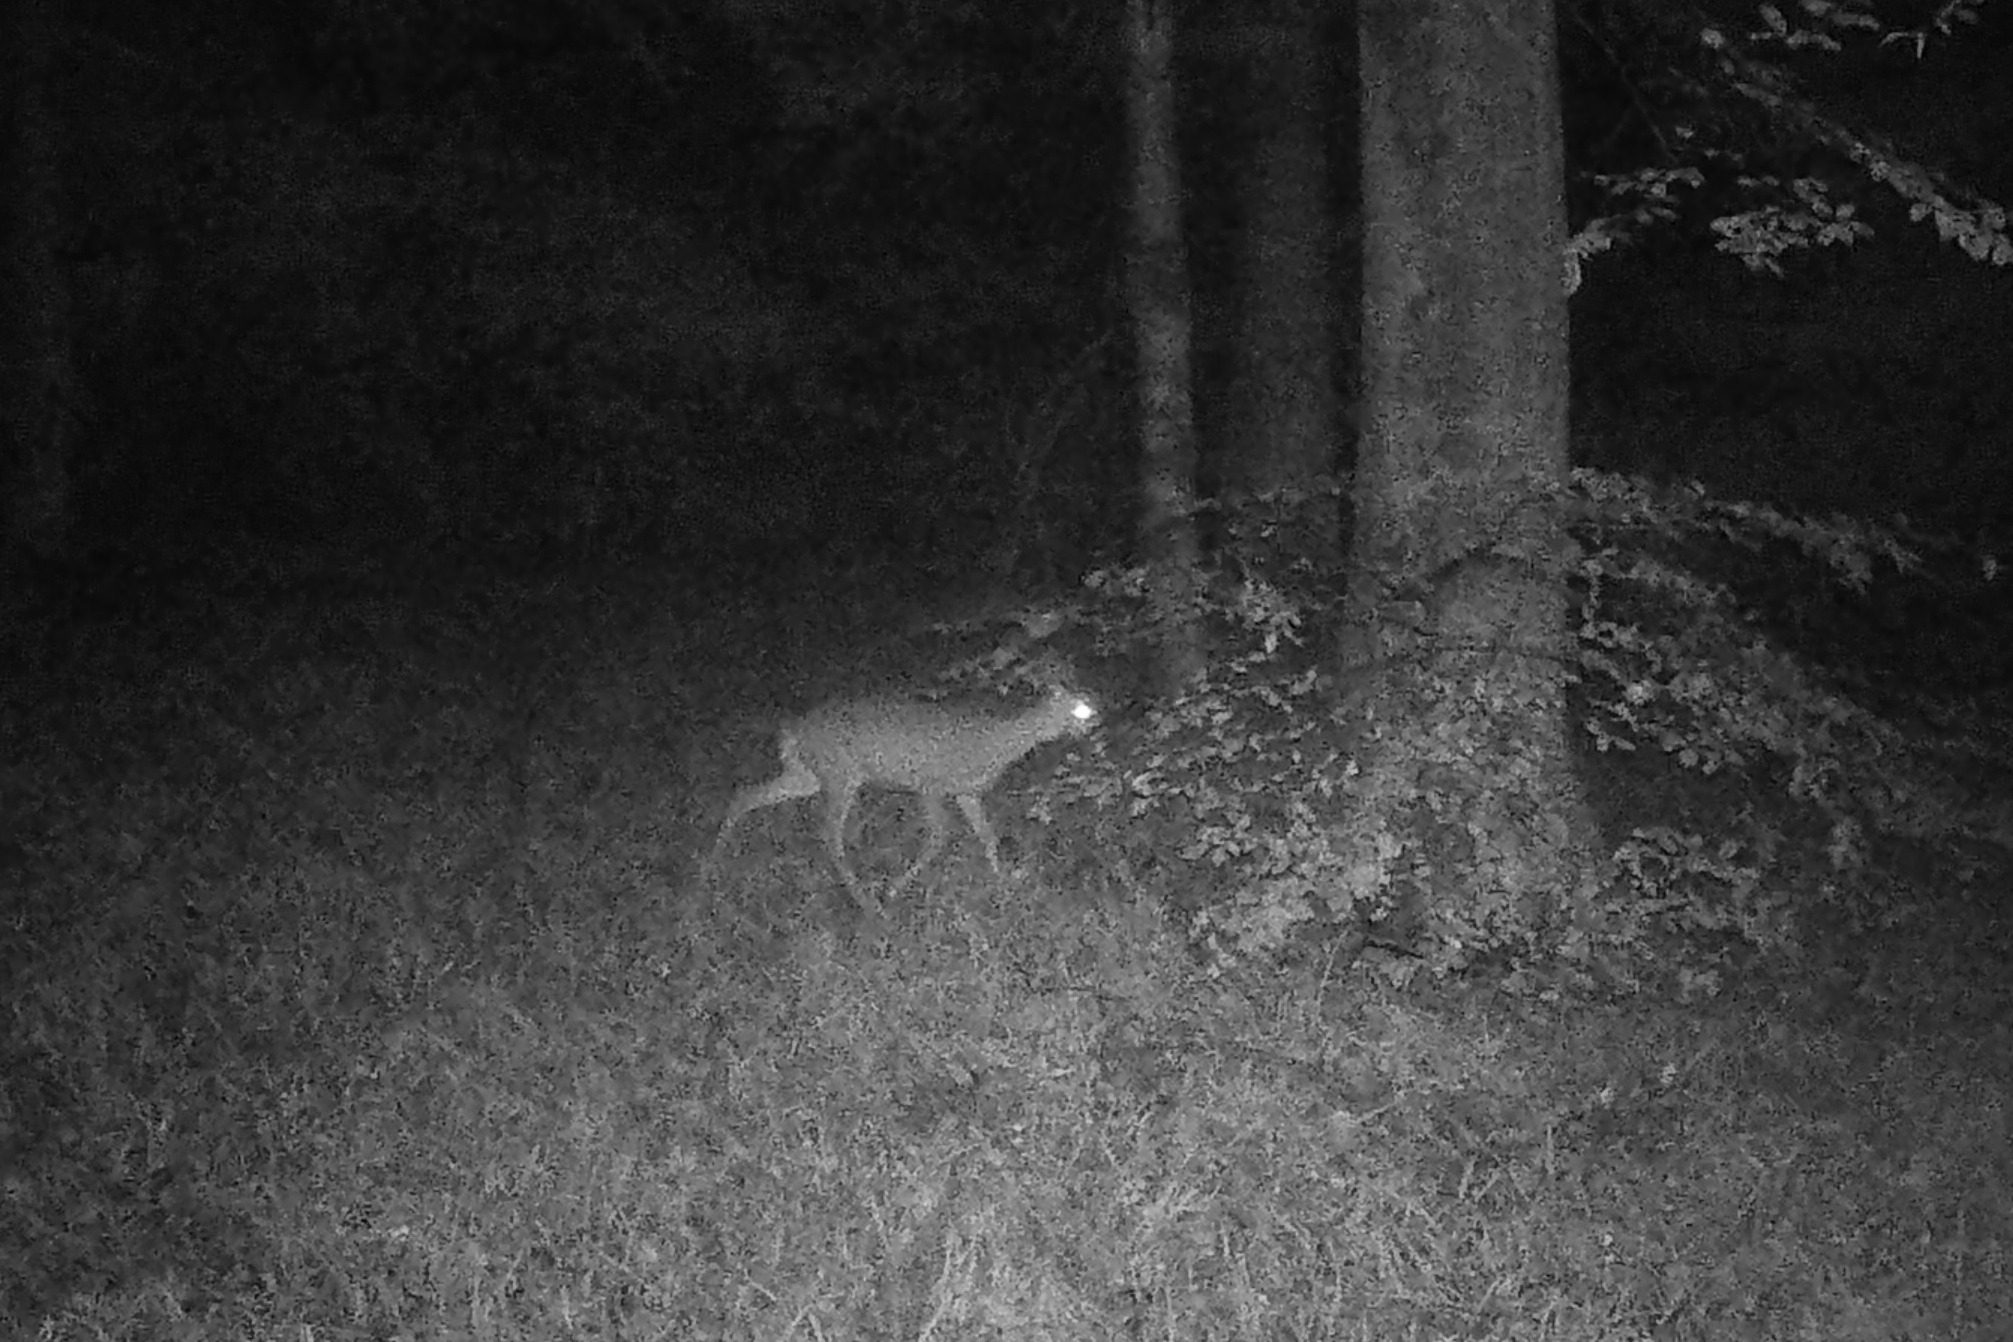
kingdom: Animalia
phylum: Chordata
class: Mammalia
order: Artiodactyla
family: Cervidae
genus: Capreolus
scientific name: Capreolus capreolus
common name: Western roe deer
